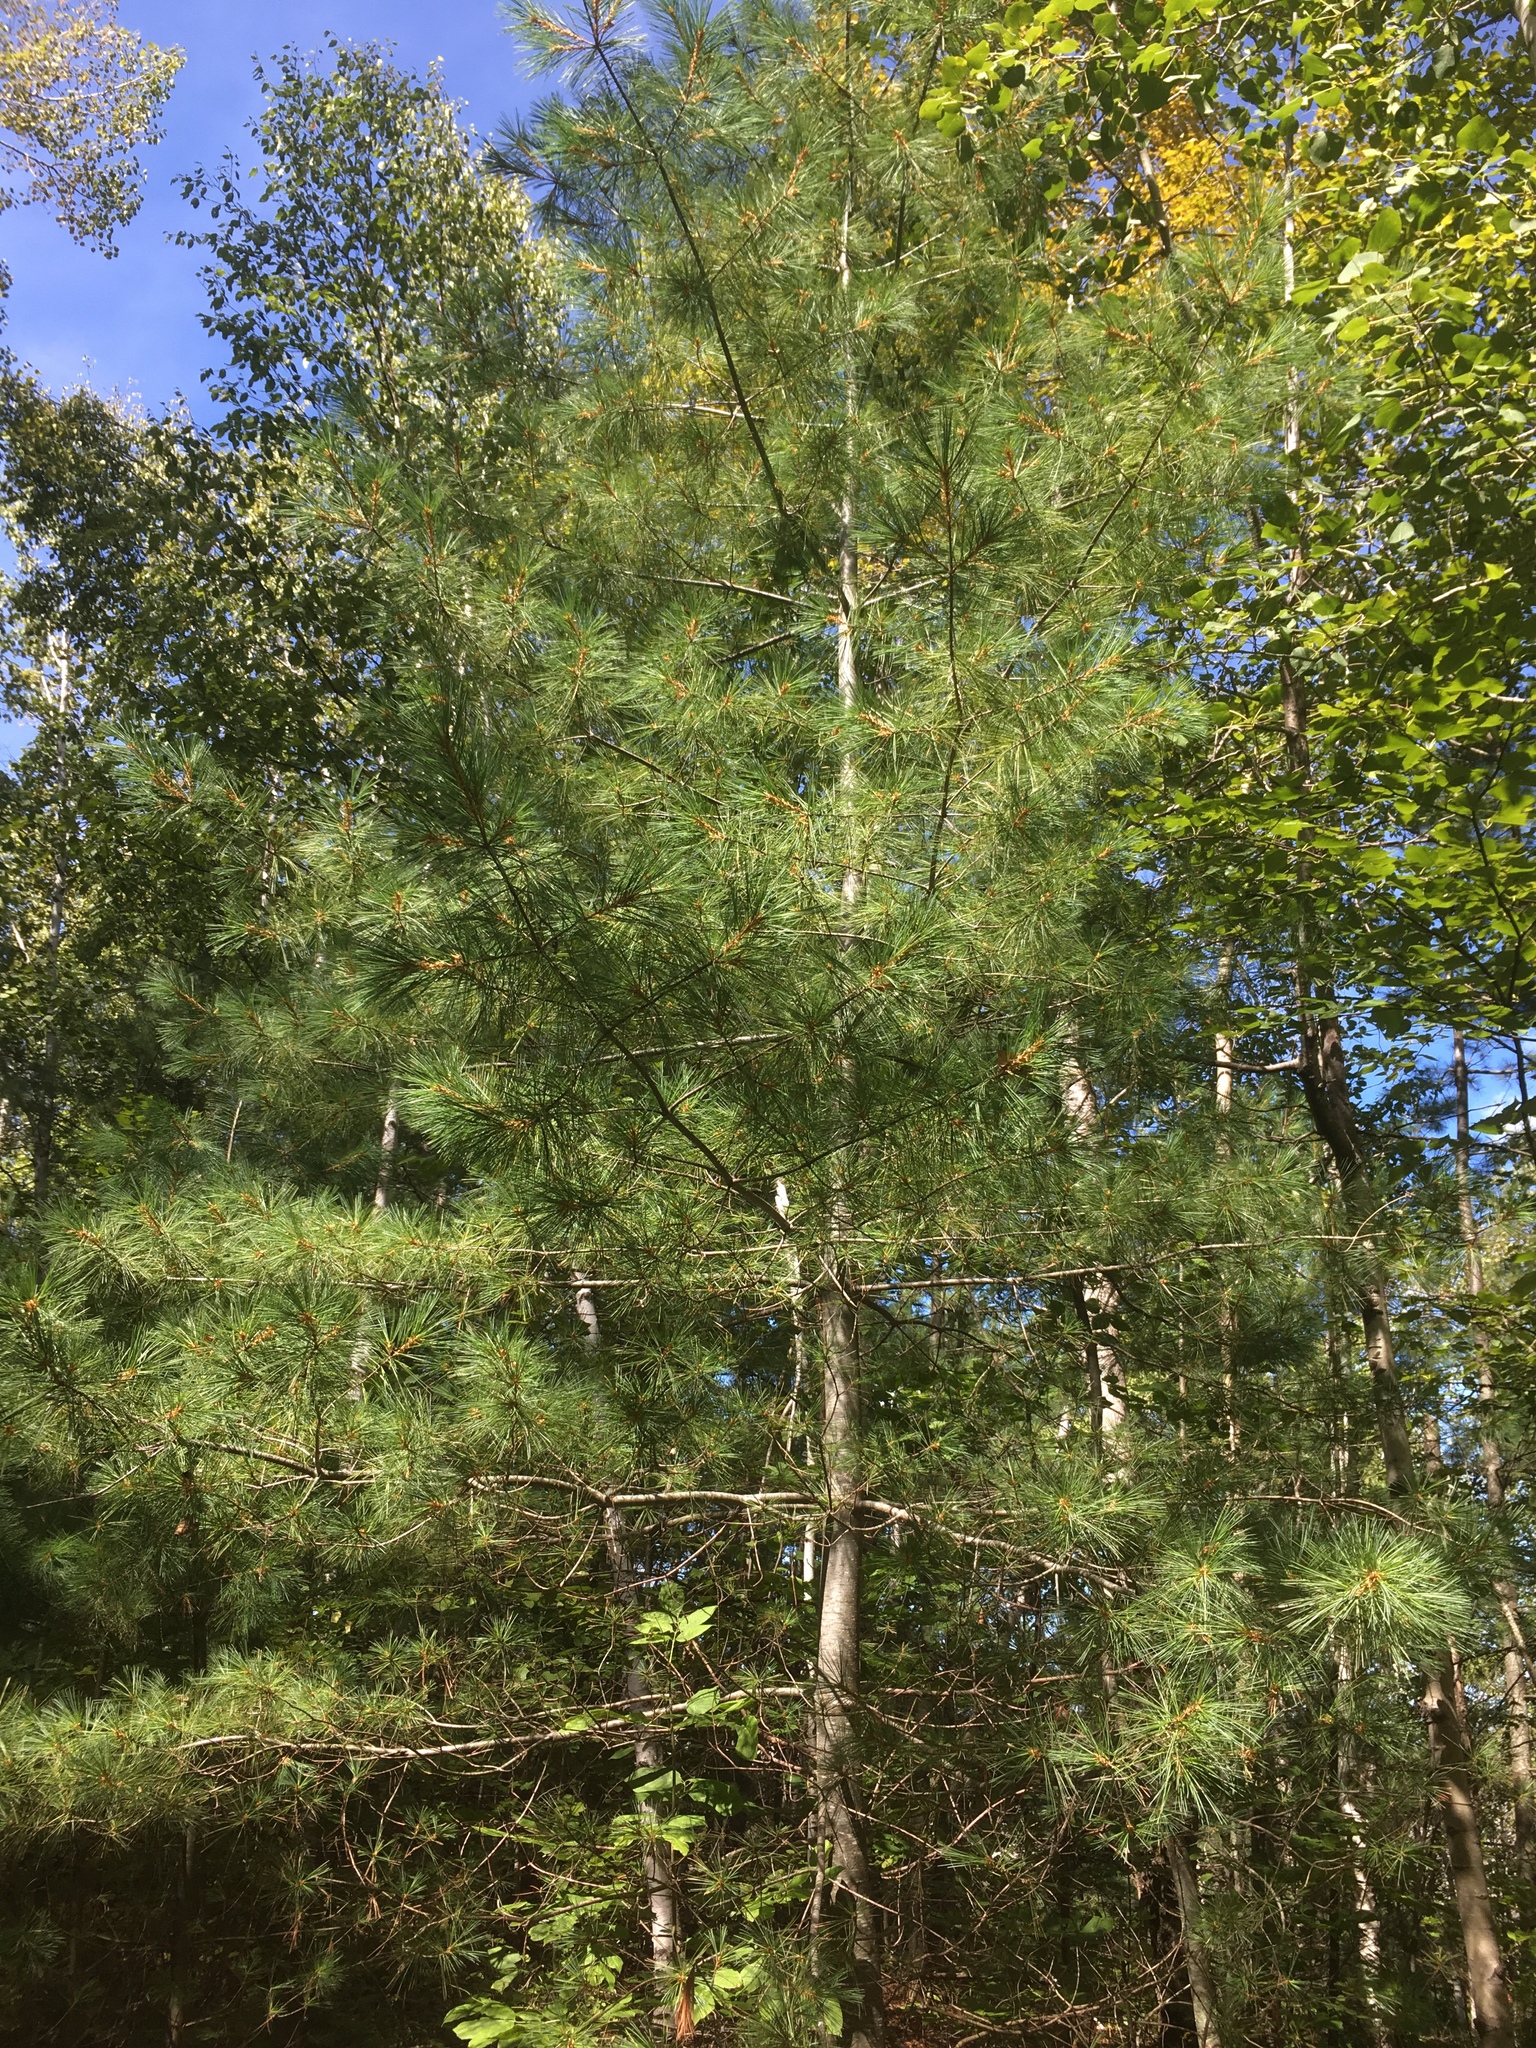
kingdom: Plantae
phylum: Tracheophyta
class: Pinopsida
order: Pinales
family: Pinaceae
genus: Pinus
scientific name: Pinus strobus
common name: Weymouth pine
